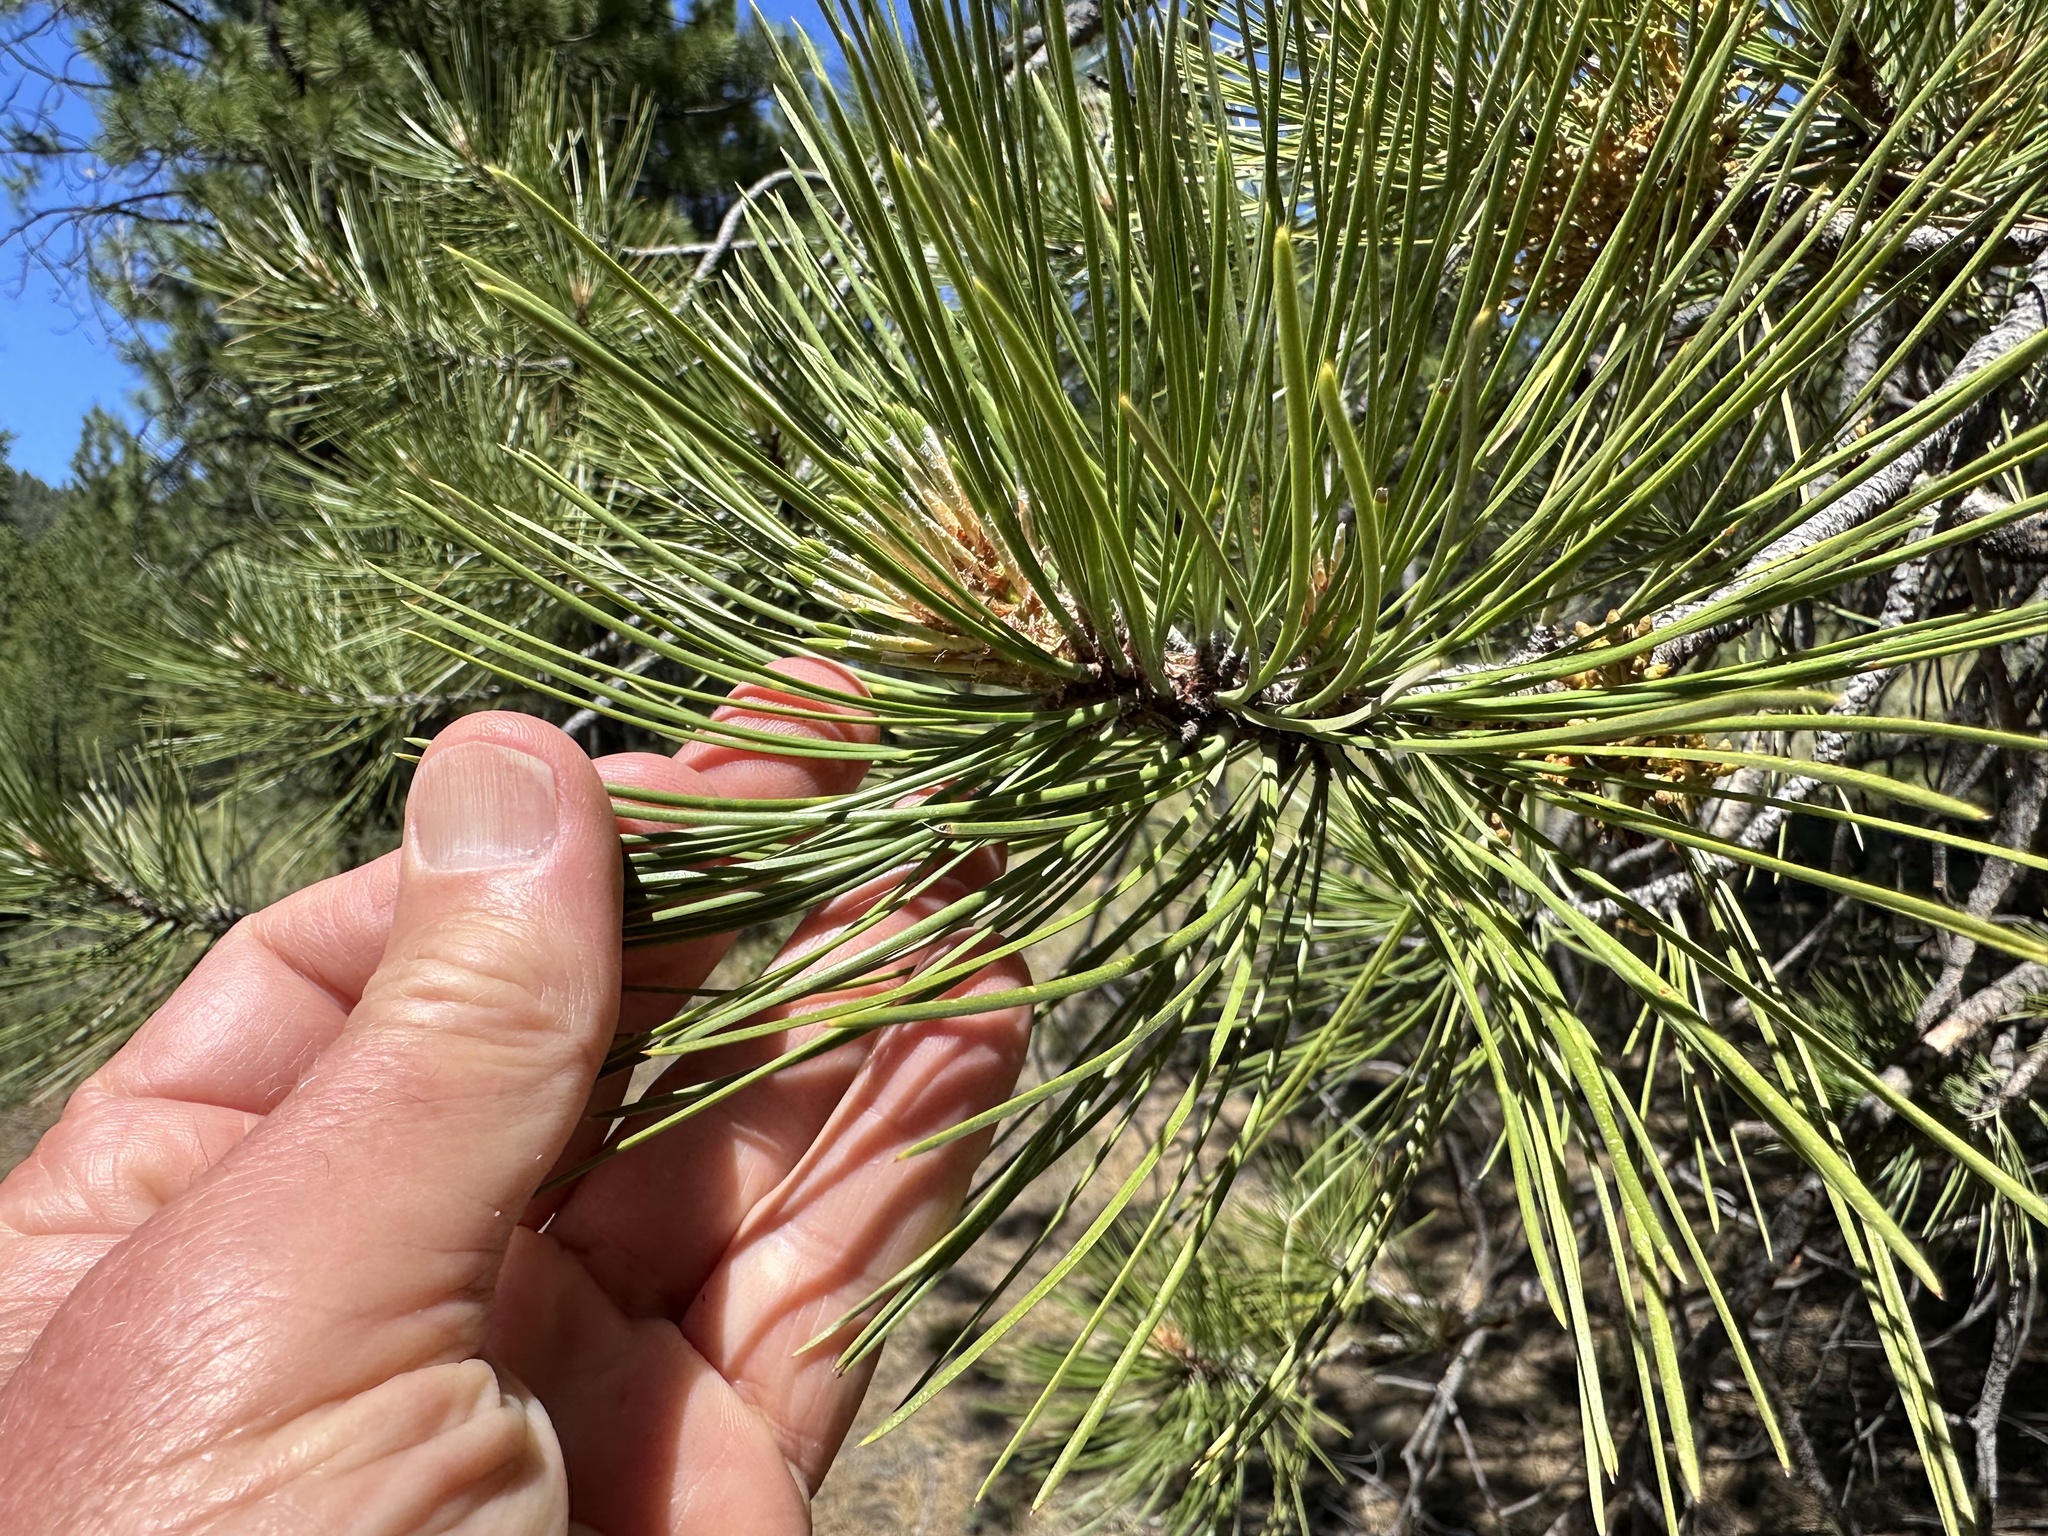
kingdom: Plantae
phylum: Tracheophyta
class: Pinopsida
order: Pinales
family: Pinaceae
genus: Pinus
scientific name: Pinus ponderosa
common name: Western yellow-pine
